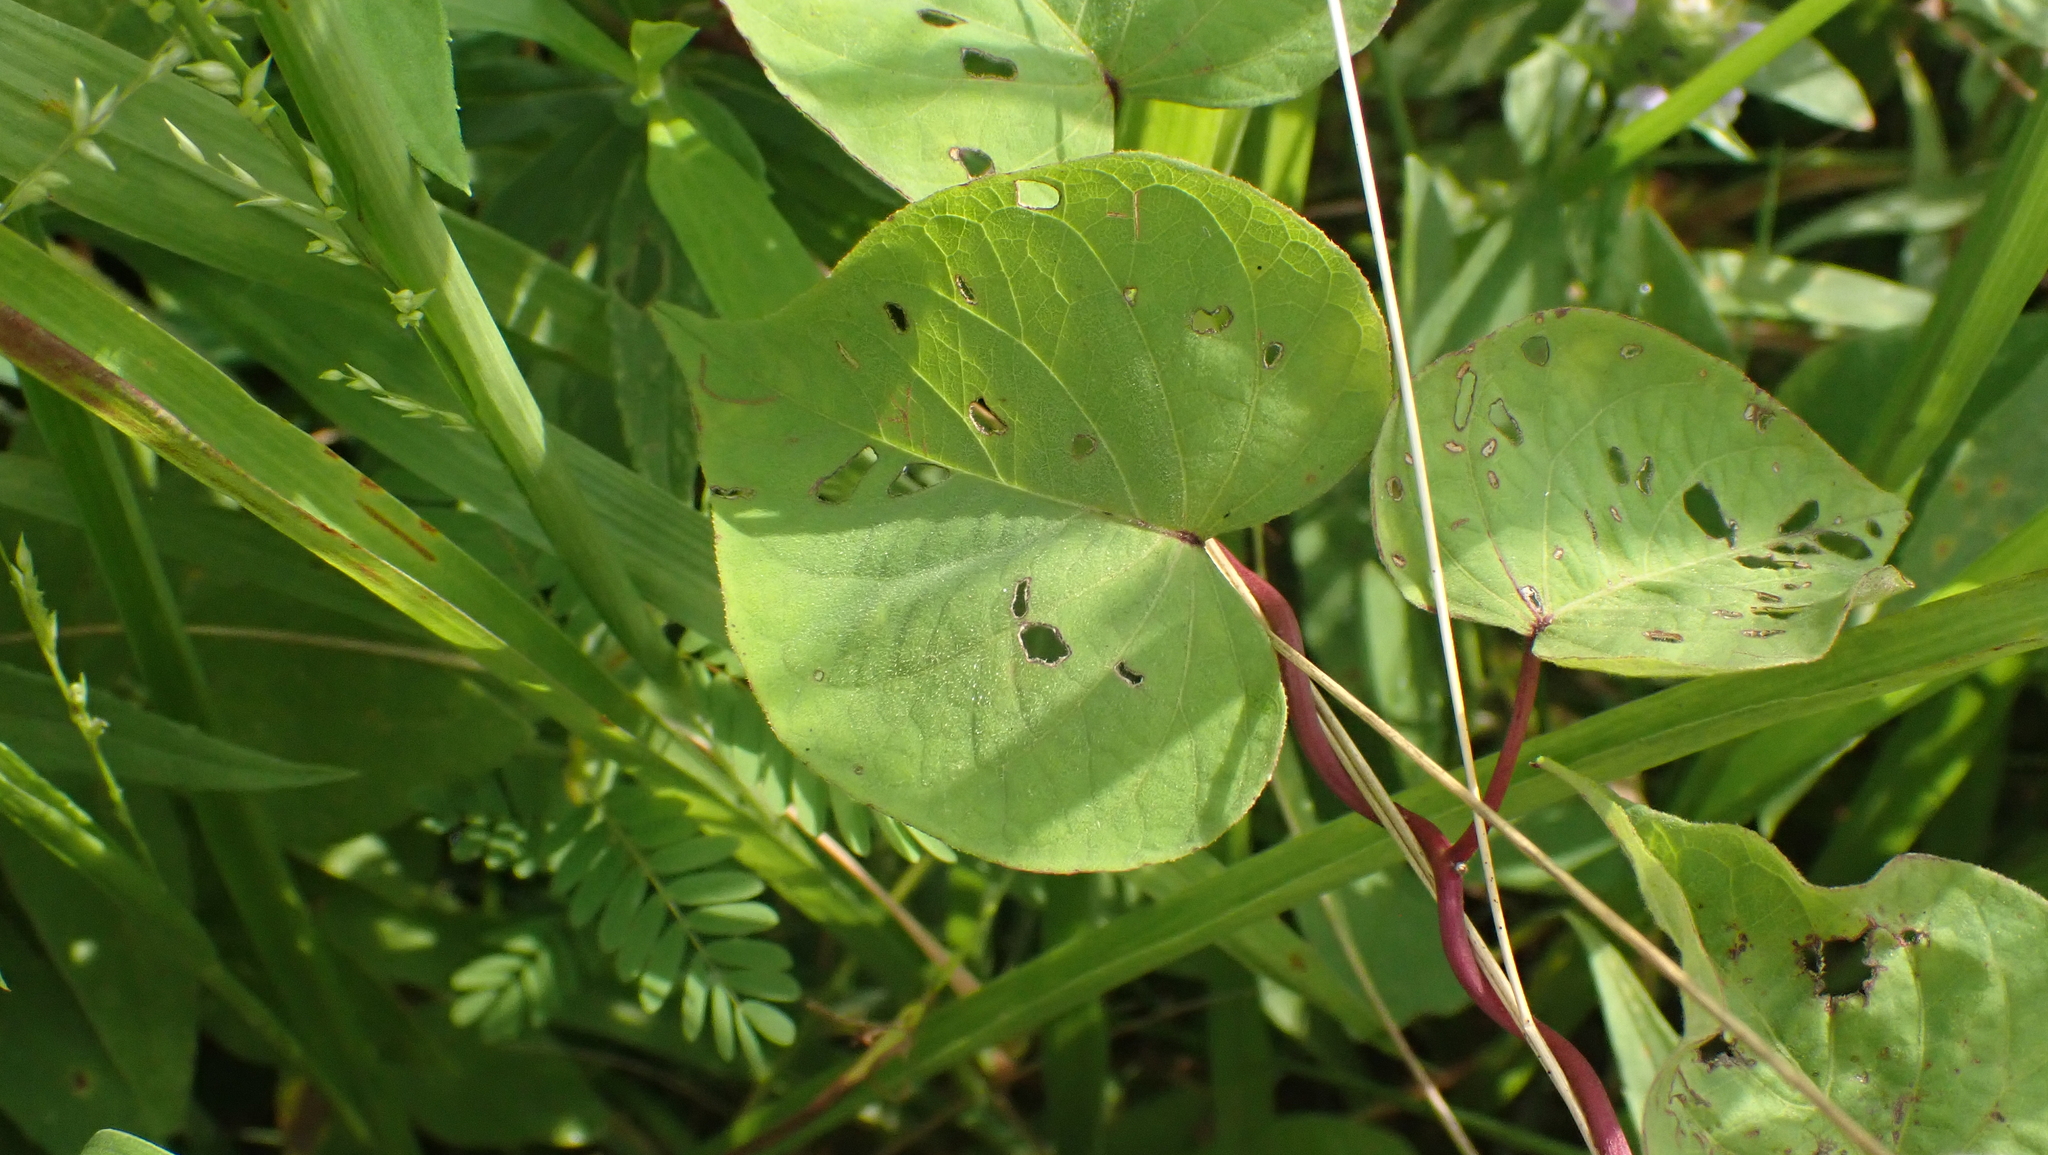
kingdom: Plantae
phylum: Tracheophyta
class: Magnoliopsida
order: Solanales
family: Convolvulaceae
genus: Ipomoea
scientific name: Ipomoea pandurata
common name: Man-of-the-earth
